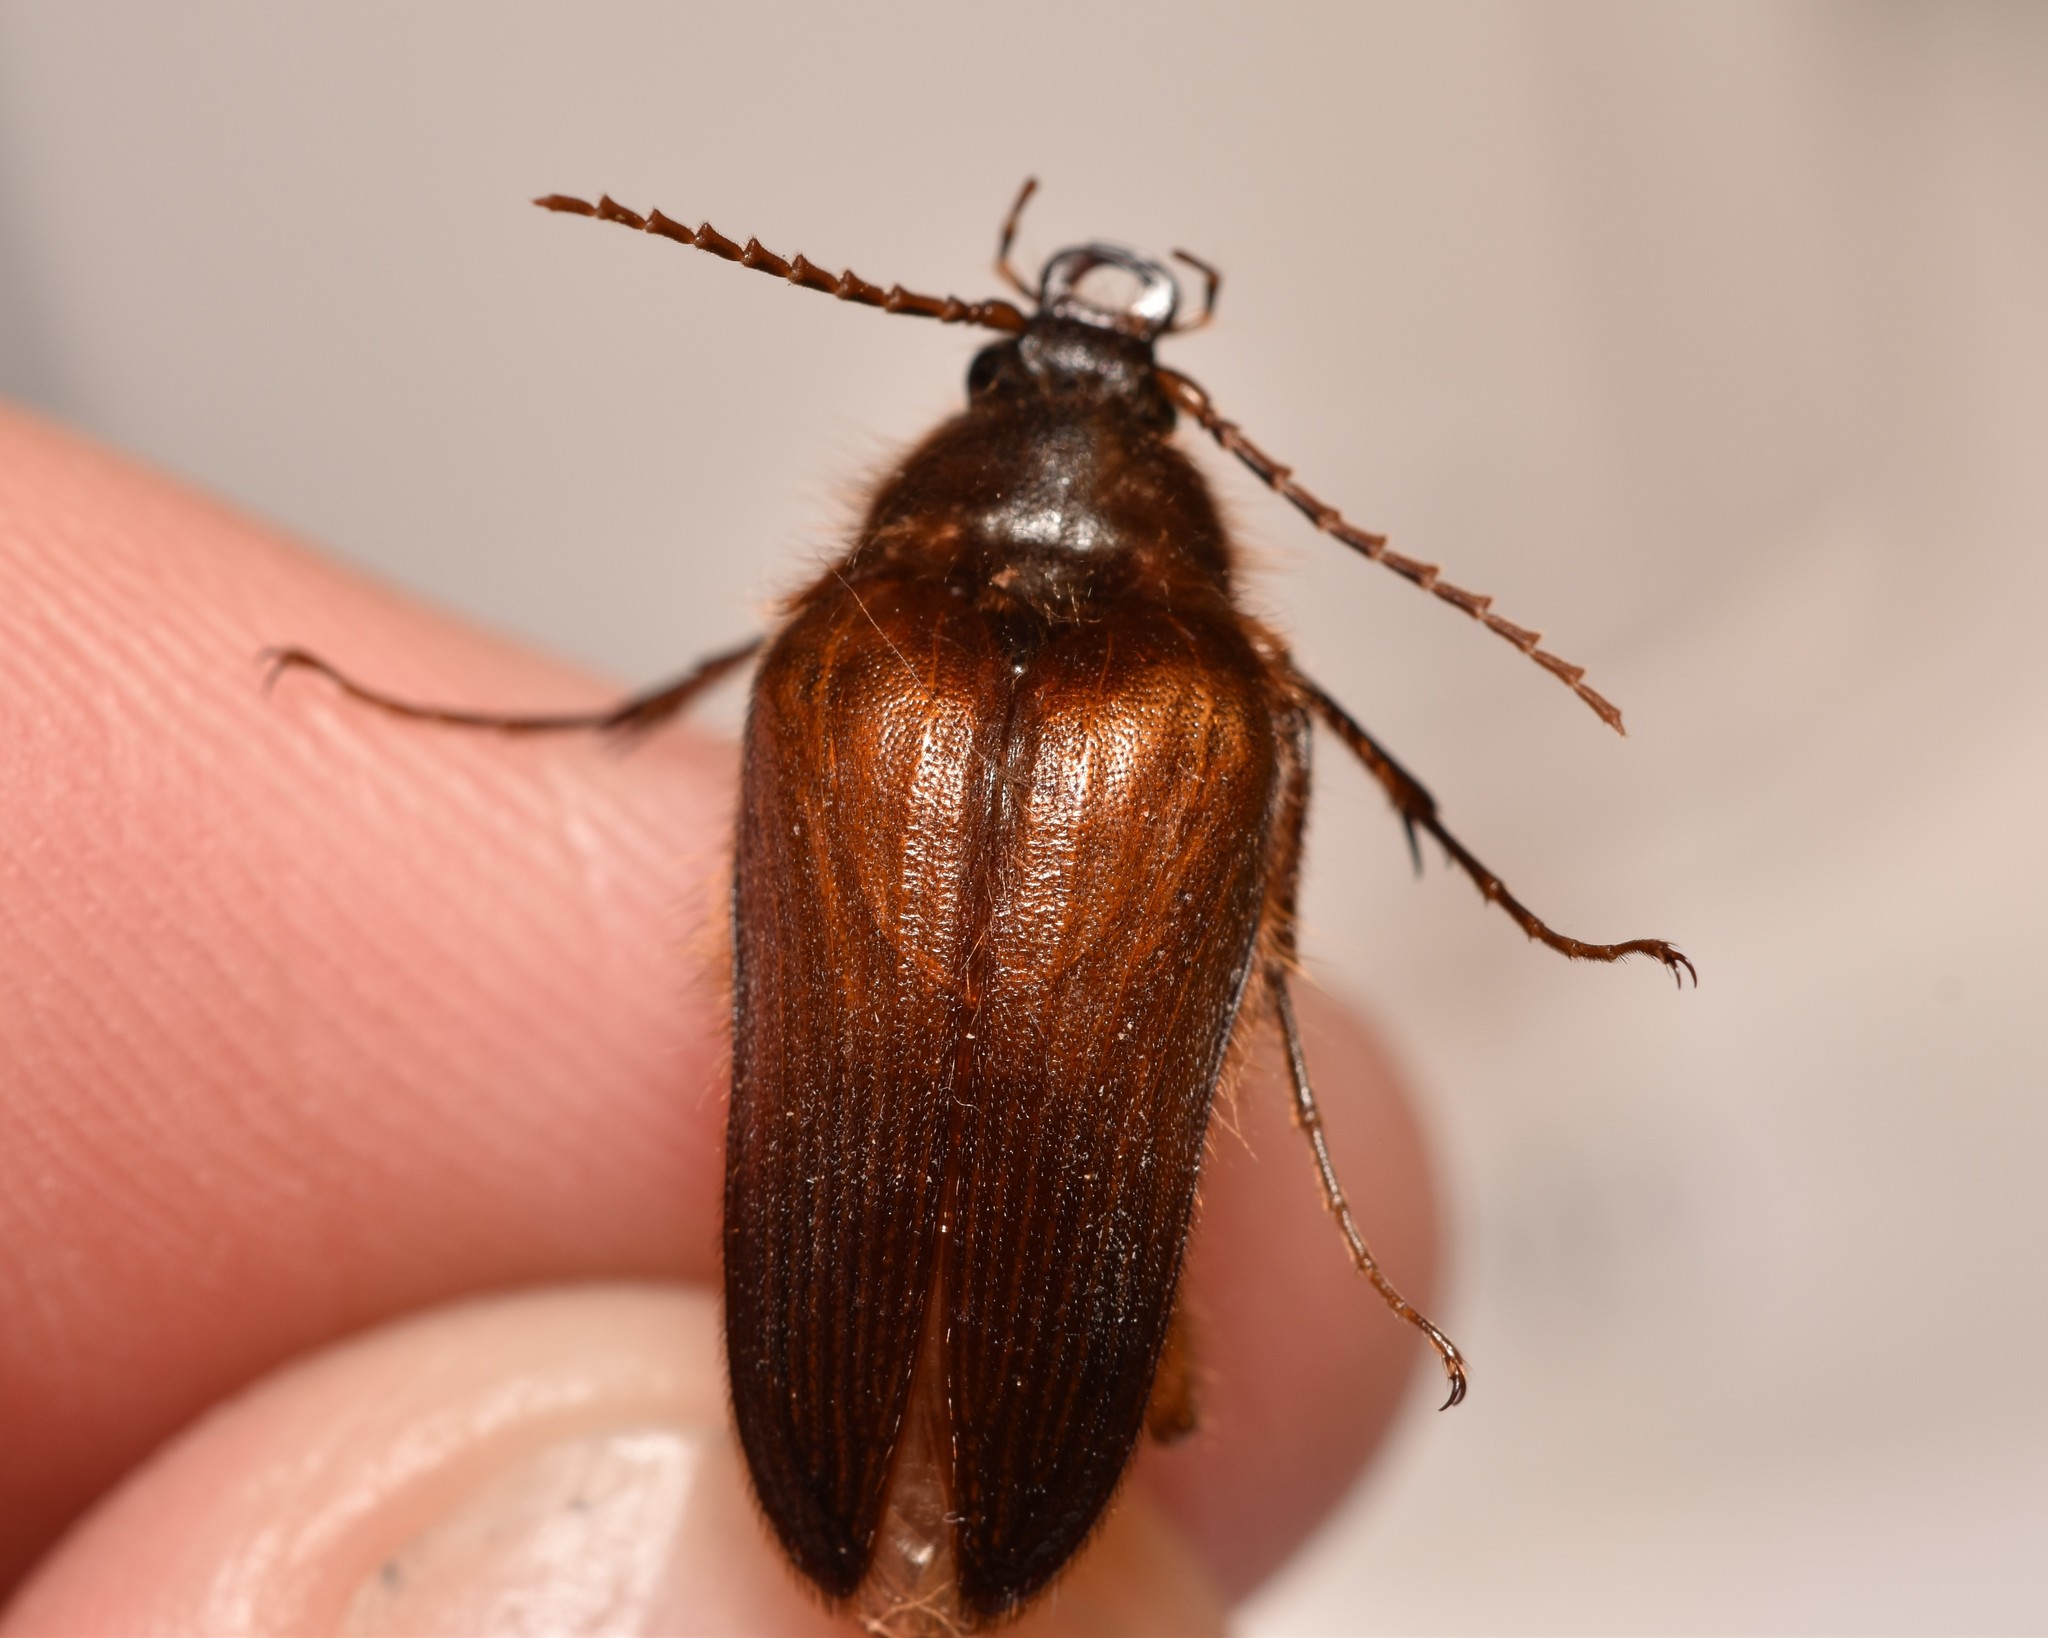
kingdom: Animalia
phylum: Arthropoda
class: Insecta
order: Coleoptera
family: Elateridae
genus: Scaptolenus
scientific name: Scaptolenus
